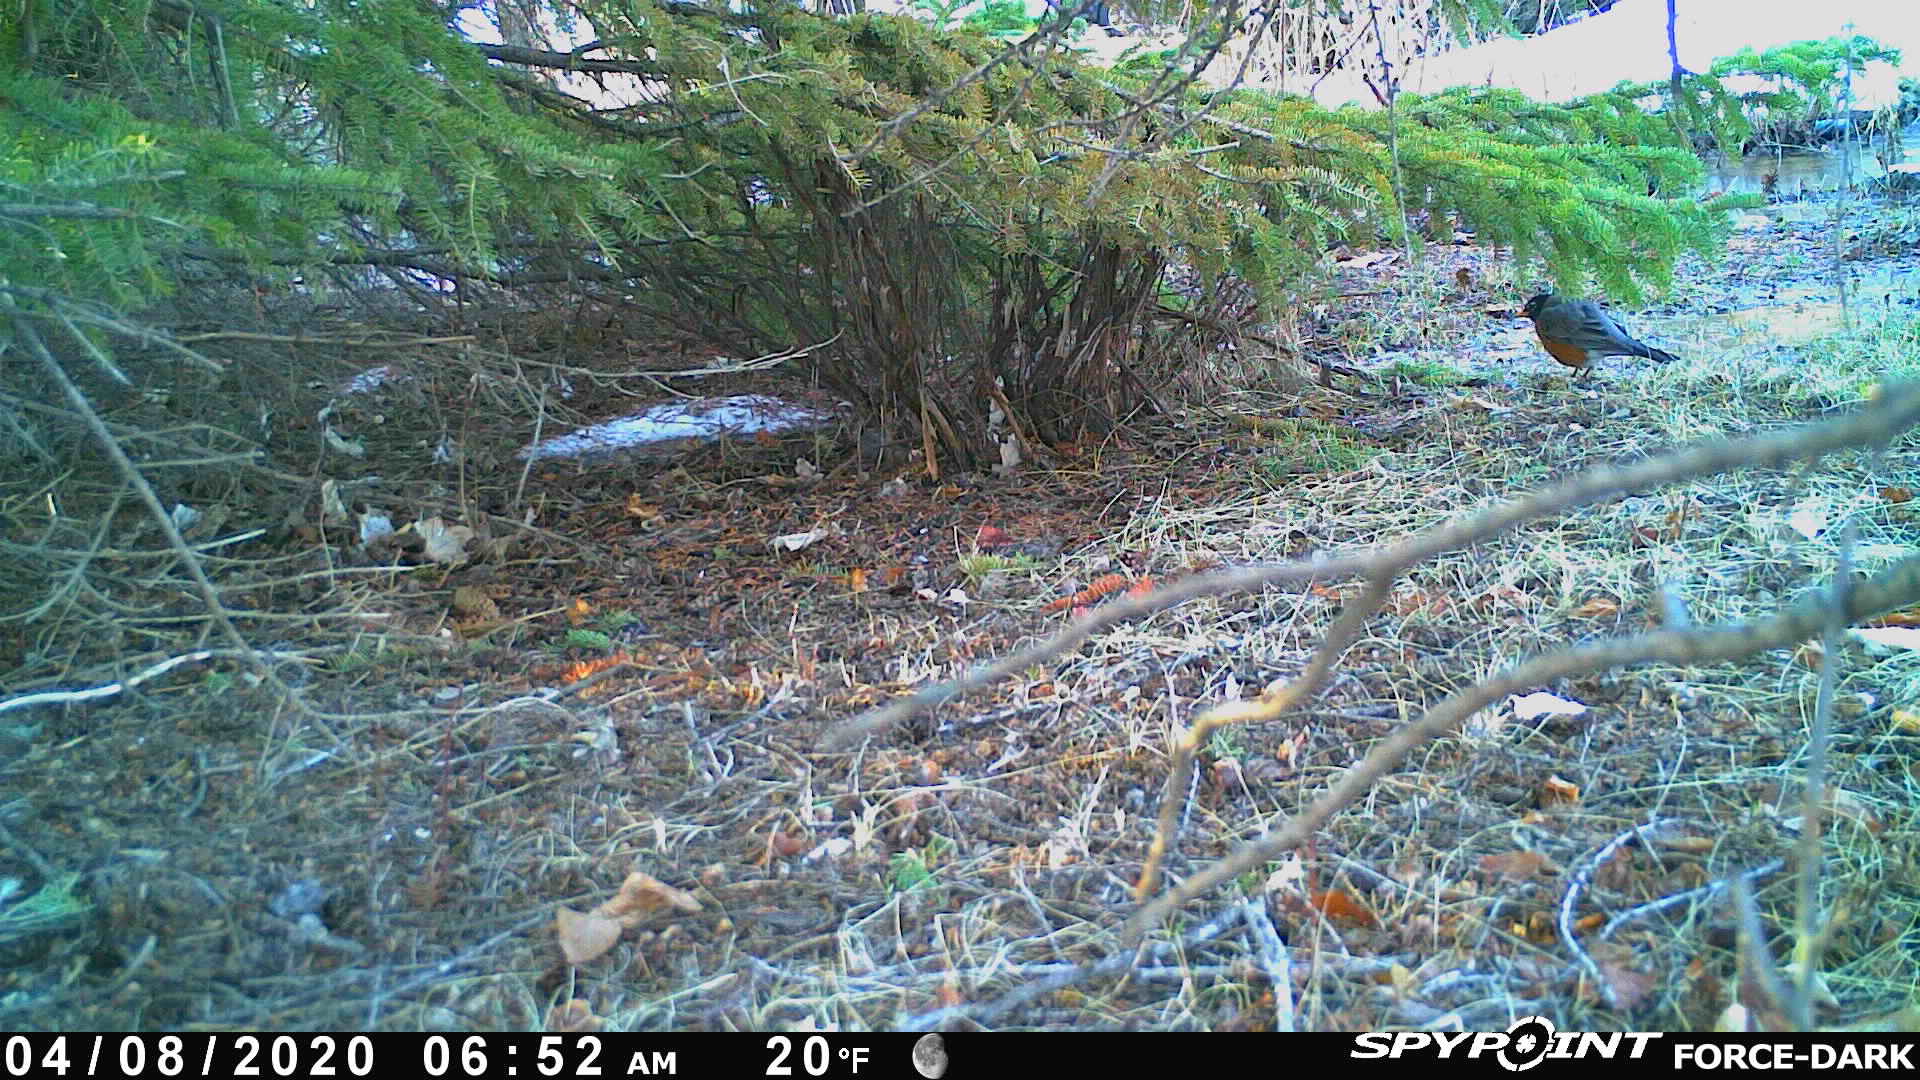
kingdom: Animalia
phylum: Chordata
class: Aves
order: Passeriformes
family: Turdidae
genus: Turdus
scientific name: Turdus migratorius
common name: American robin
